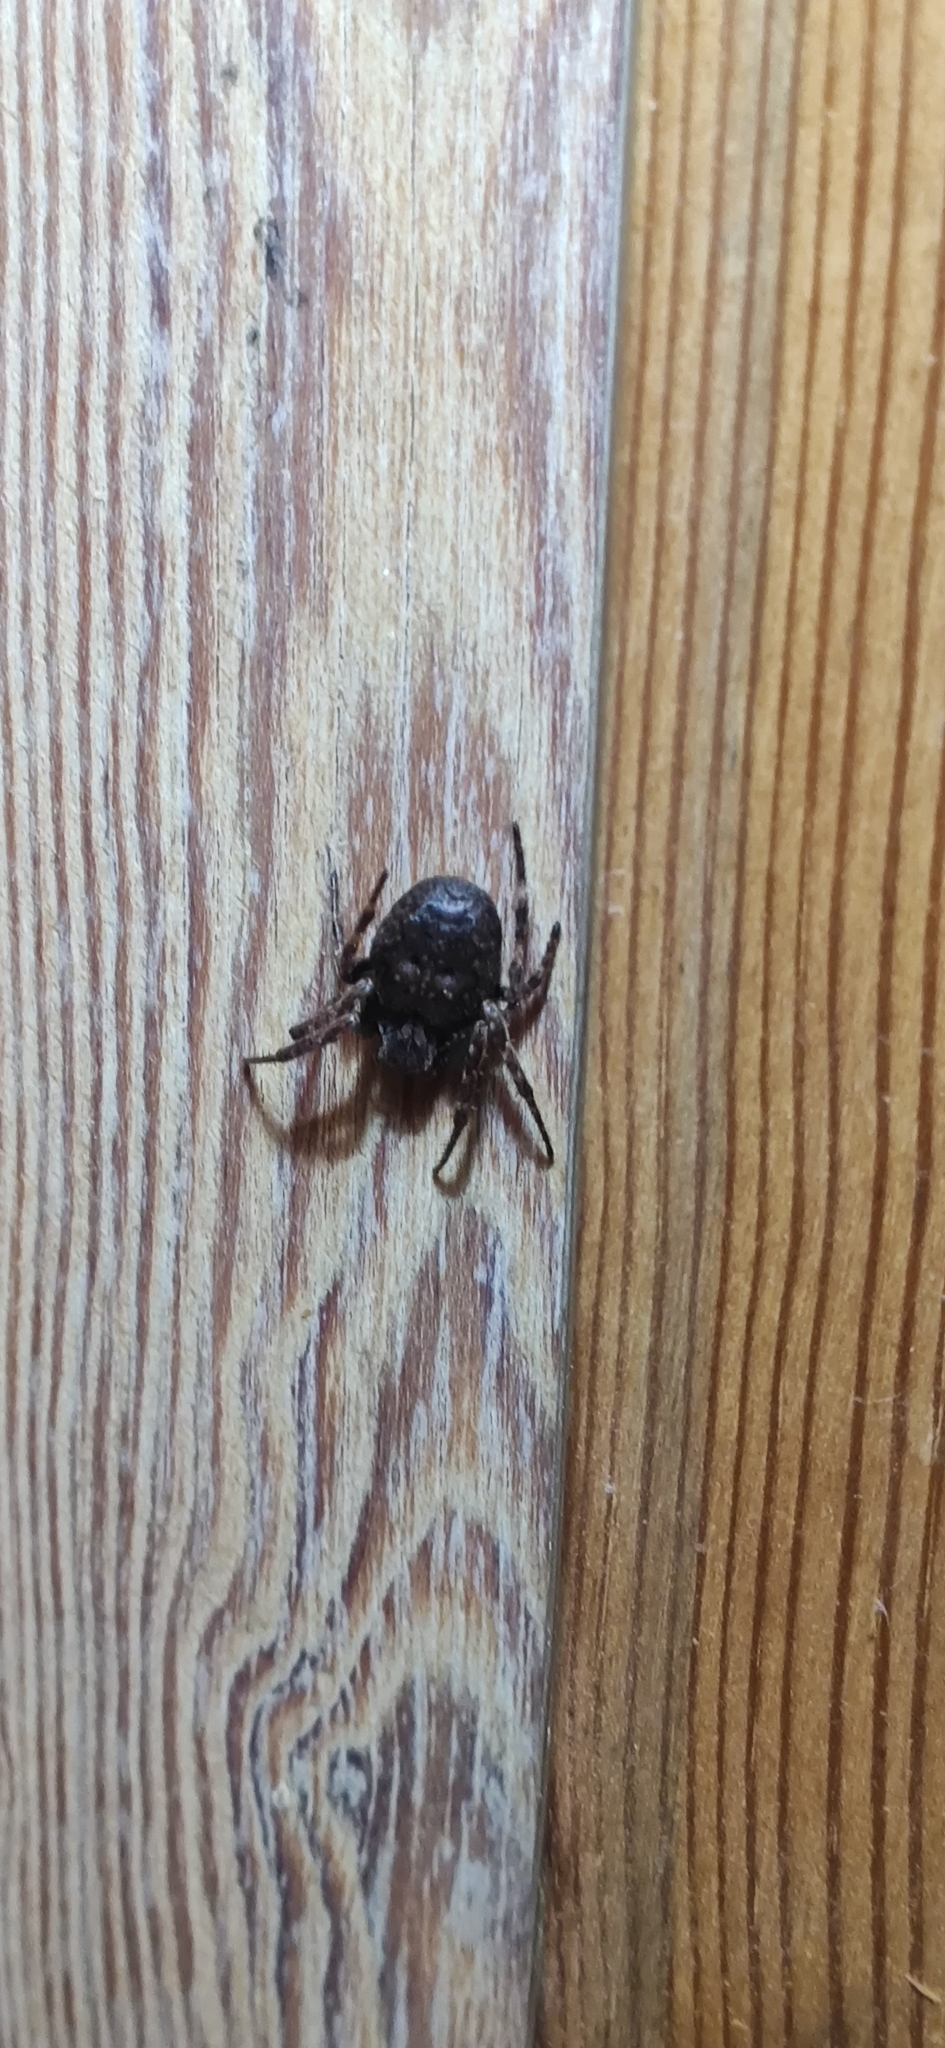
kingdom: Animalia
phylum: Arthropoda
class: Arachnida
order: Araneae
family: Araneidae
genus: Nuctenea
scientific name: Nuctenea umbratica
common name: Toad spider
